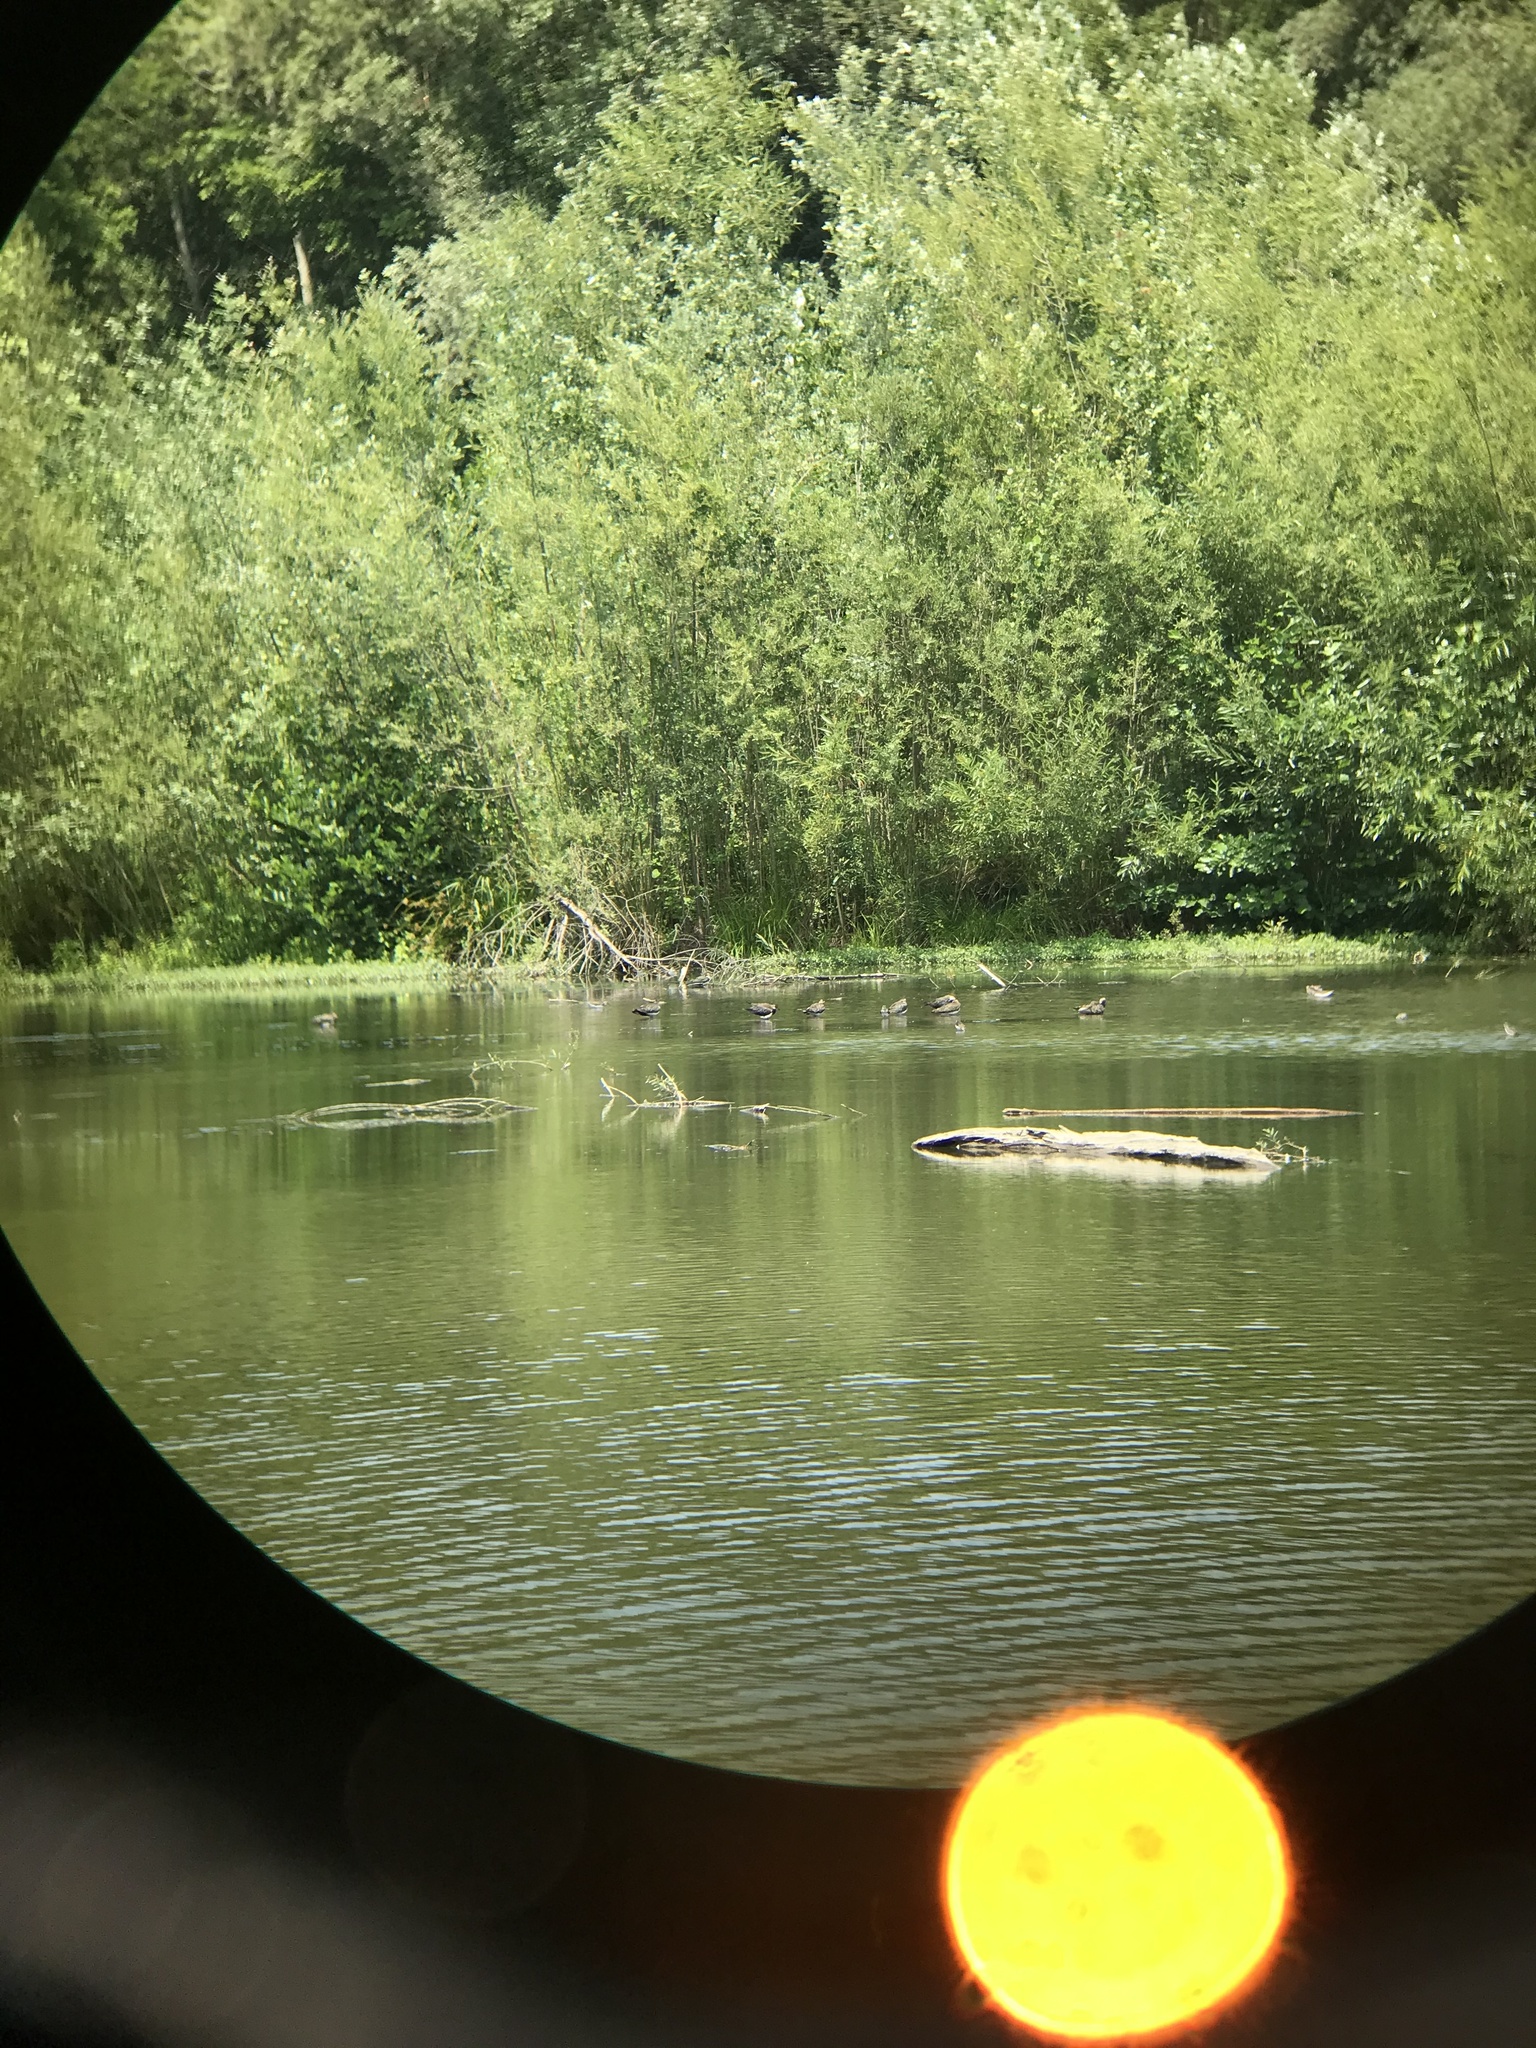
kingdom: Animalia
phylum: Chordata
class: Aves
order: Charadriiformes
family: Charadriidae
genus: Vanellus
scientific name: Vanellus vanellus
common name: Northern lapwing
